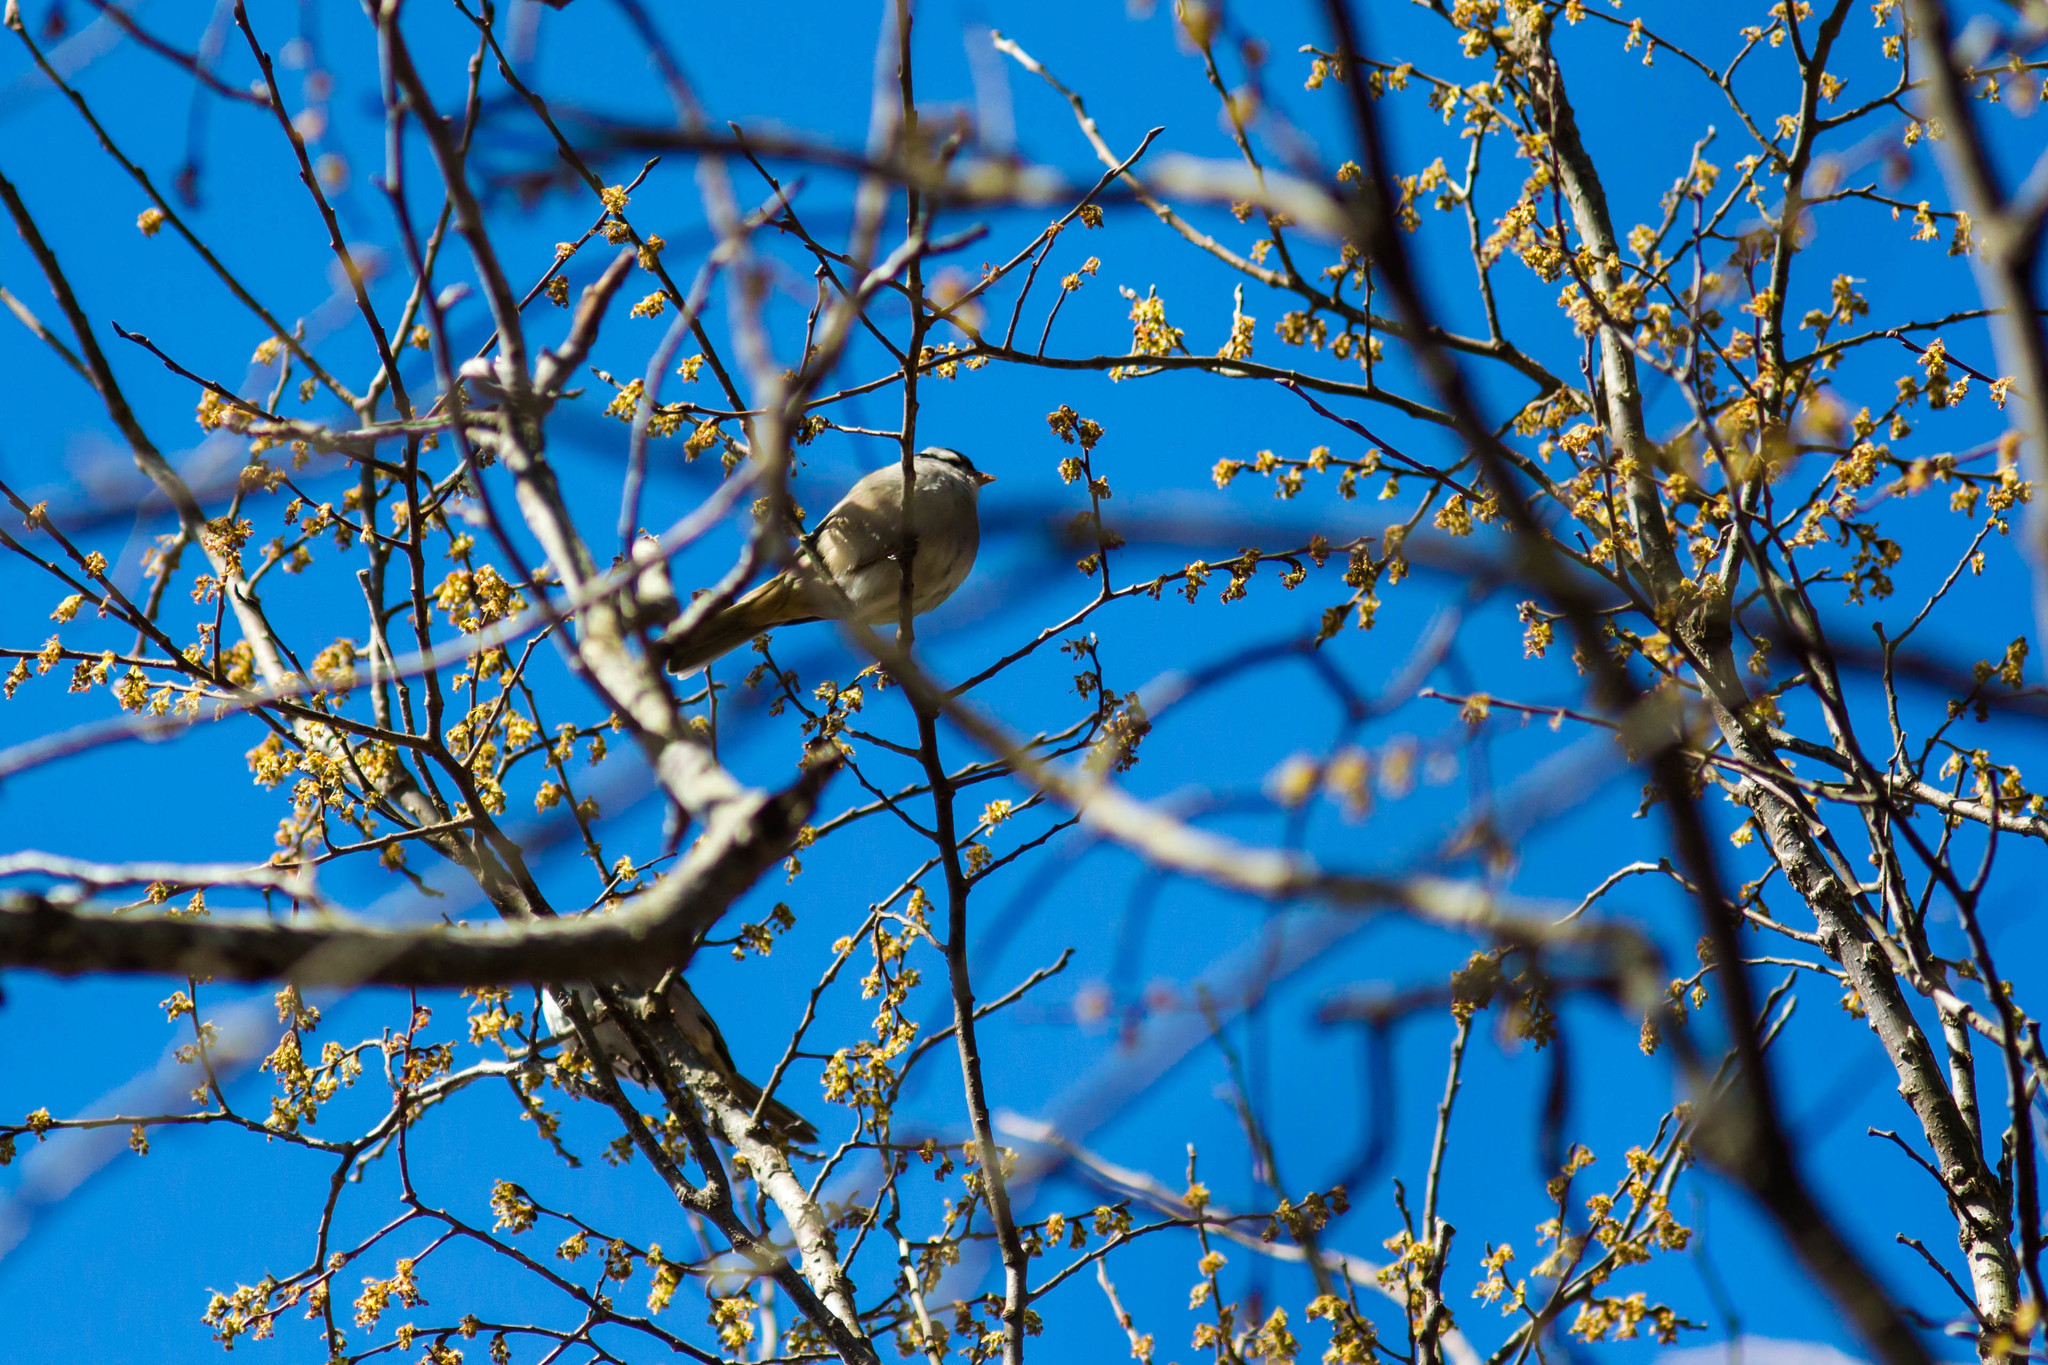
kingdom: Animalia
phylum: Chordata
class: Aves
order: Passeriformes
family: Passerellidae
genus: Zonotrichia
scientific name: Zonotrichia leucophrys
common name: White-crowned sparrow
